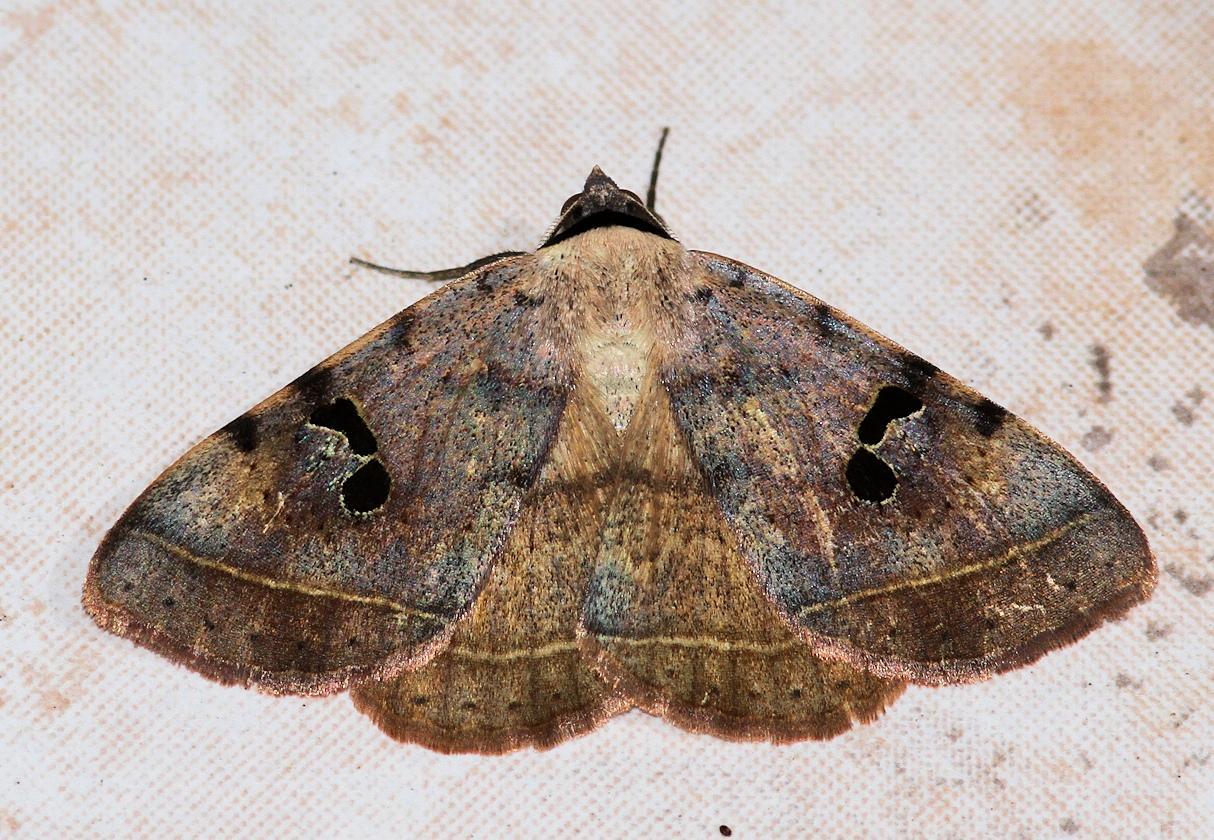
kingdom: Animalia
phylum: Arthropoda
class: Insecta
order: Lepidoptera
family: Erebidae
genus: Hypopyra
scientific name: Hypopyra africana
